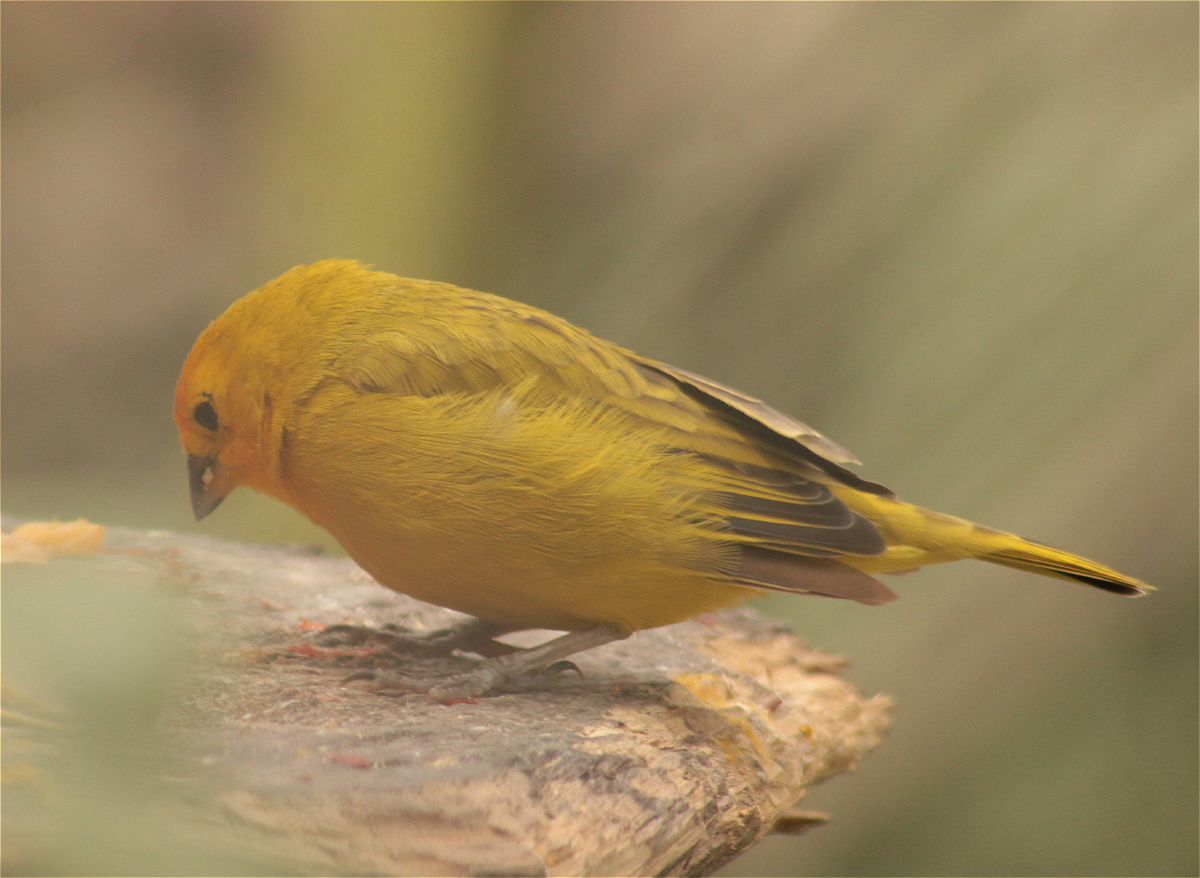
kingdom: Animalia
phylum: Chordata
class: Aves
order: Passeriformes
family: Thraupidae
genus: Sicalis
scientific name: Sicalis flaveola
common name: Saffron finch
